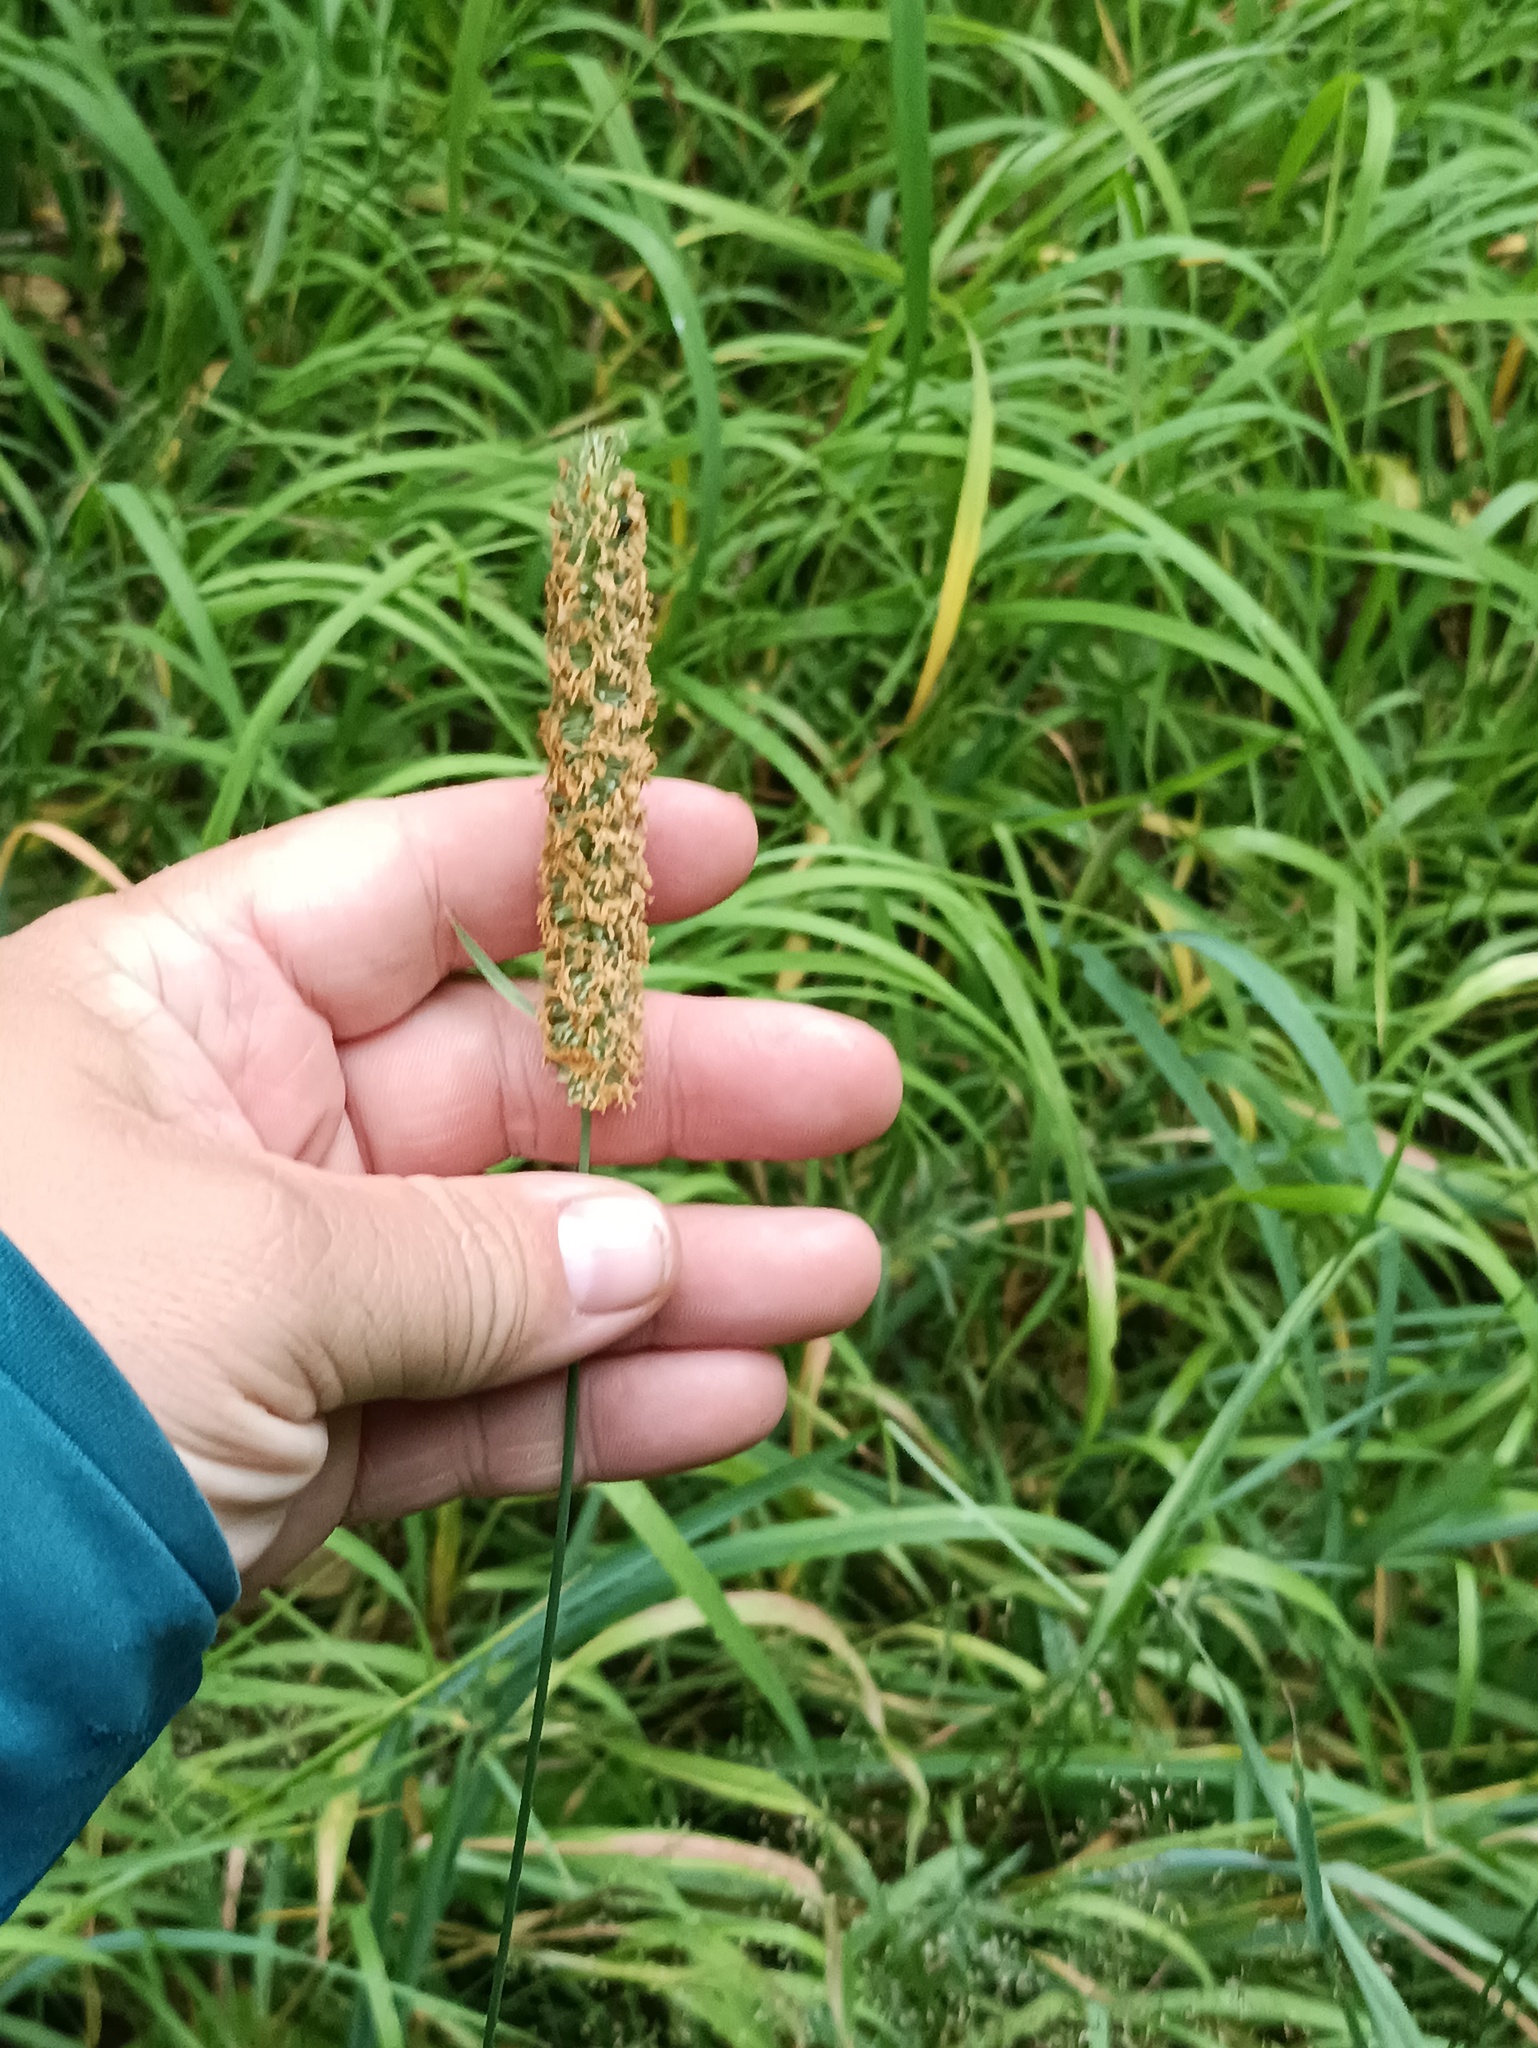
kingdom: Plantae
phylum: Tracheophyta
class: Liliopsida
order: Poales
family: Poaceae
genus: Phleum
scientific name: Phleum pratense
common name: Timothy grass
